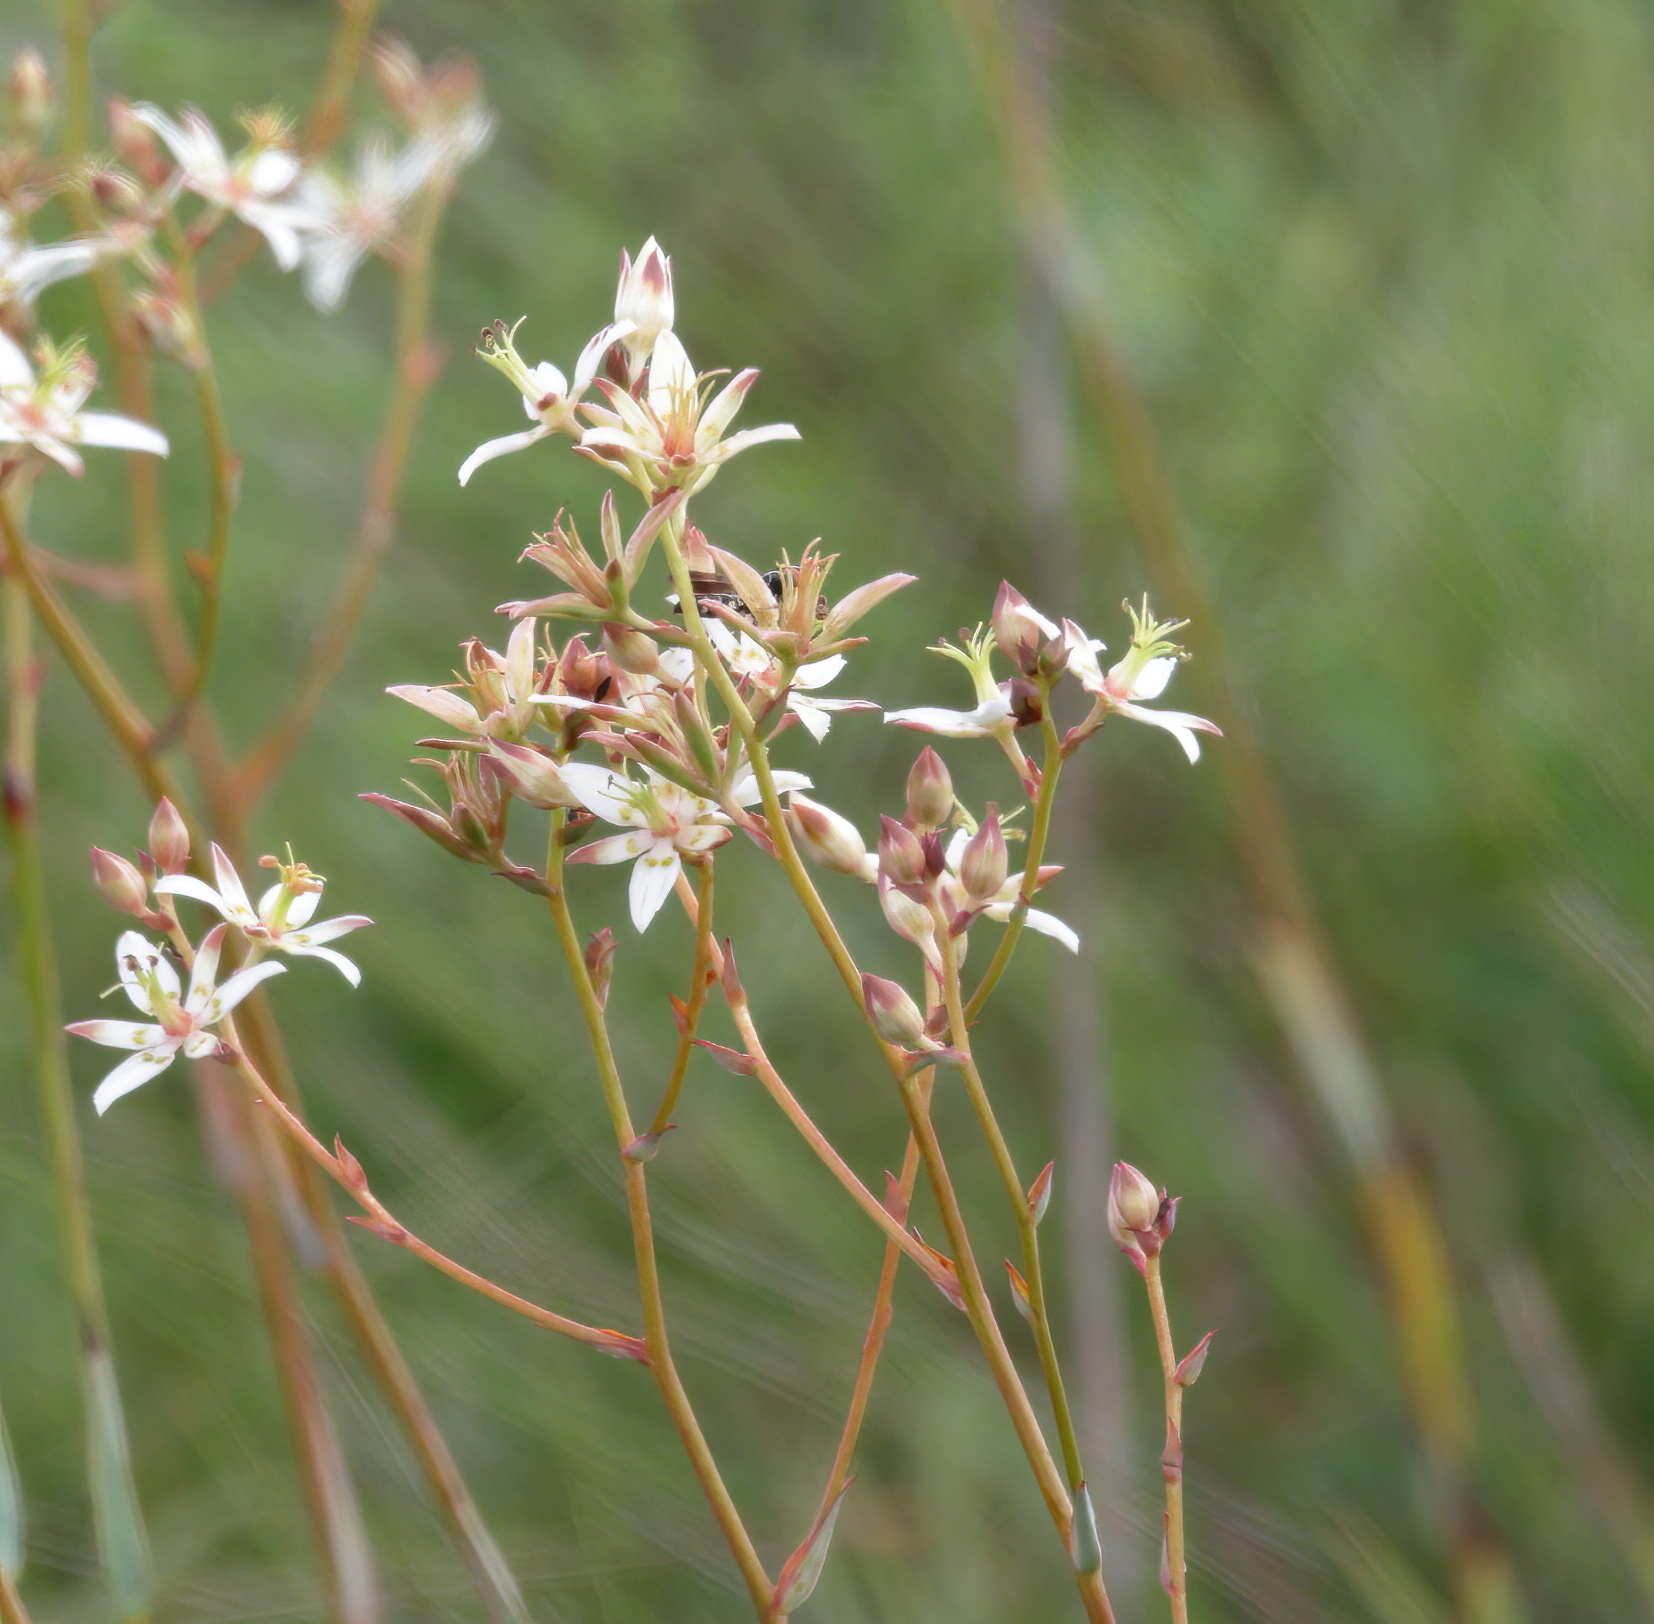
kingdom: Plantae
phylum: Tracheophyta
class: Liliopsida
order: Liliales
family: Melanthiaceae
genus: Zigadenus
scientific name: Zigadenus glaberrimus
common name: Sandbog death camas
